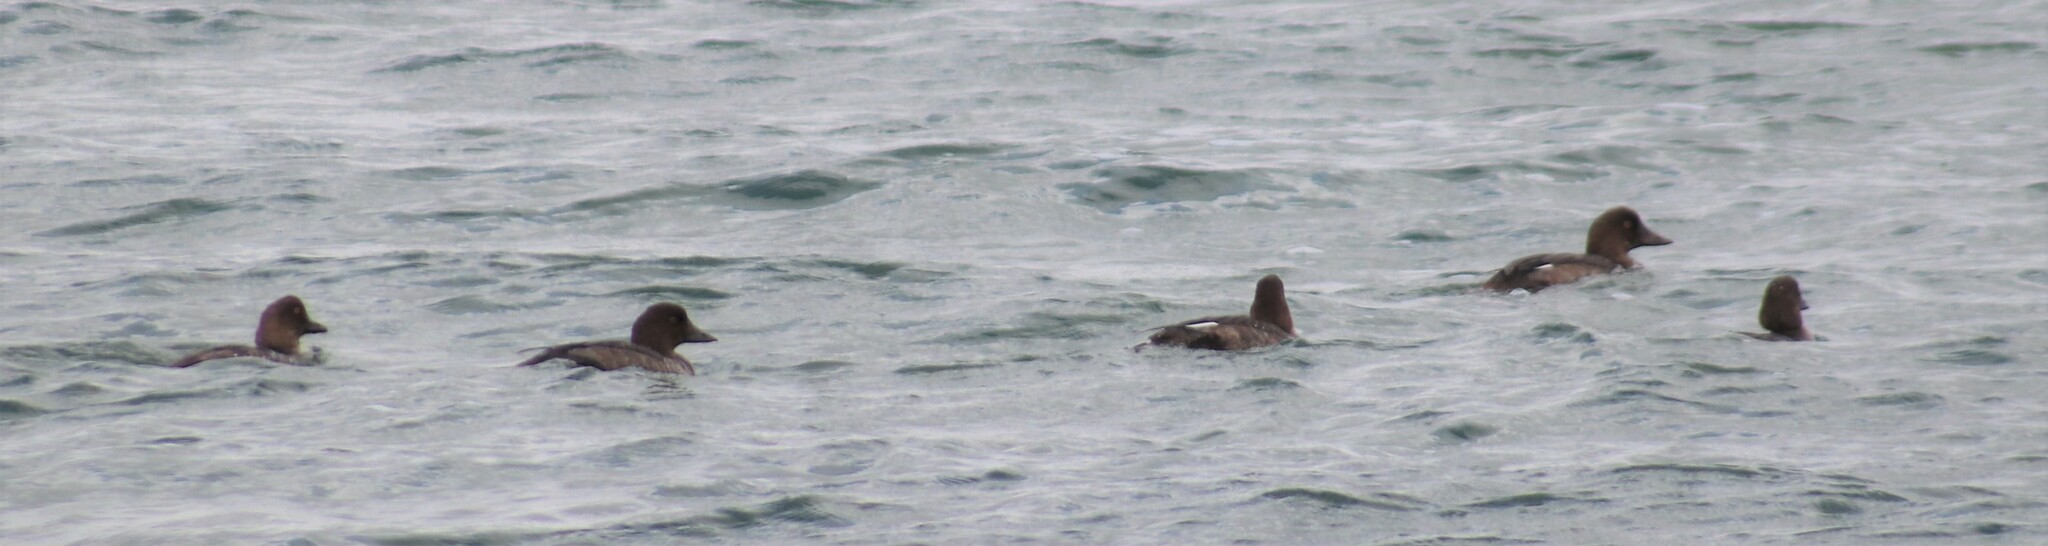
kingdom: Animalia
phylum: Chordata
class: Aves
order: Anseriformes
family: Anatidae
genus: Bucephala
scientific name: Bucephala clangula
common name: Common goldeneye
